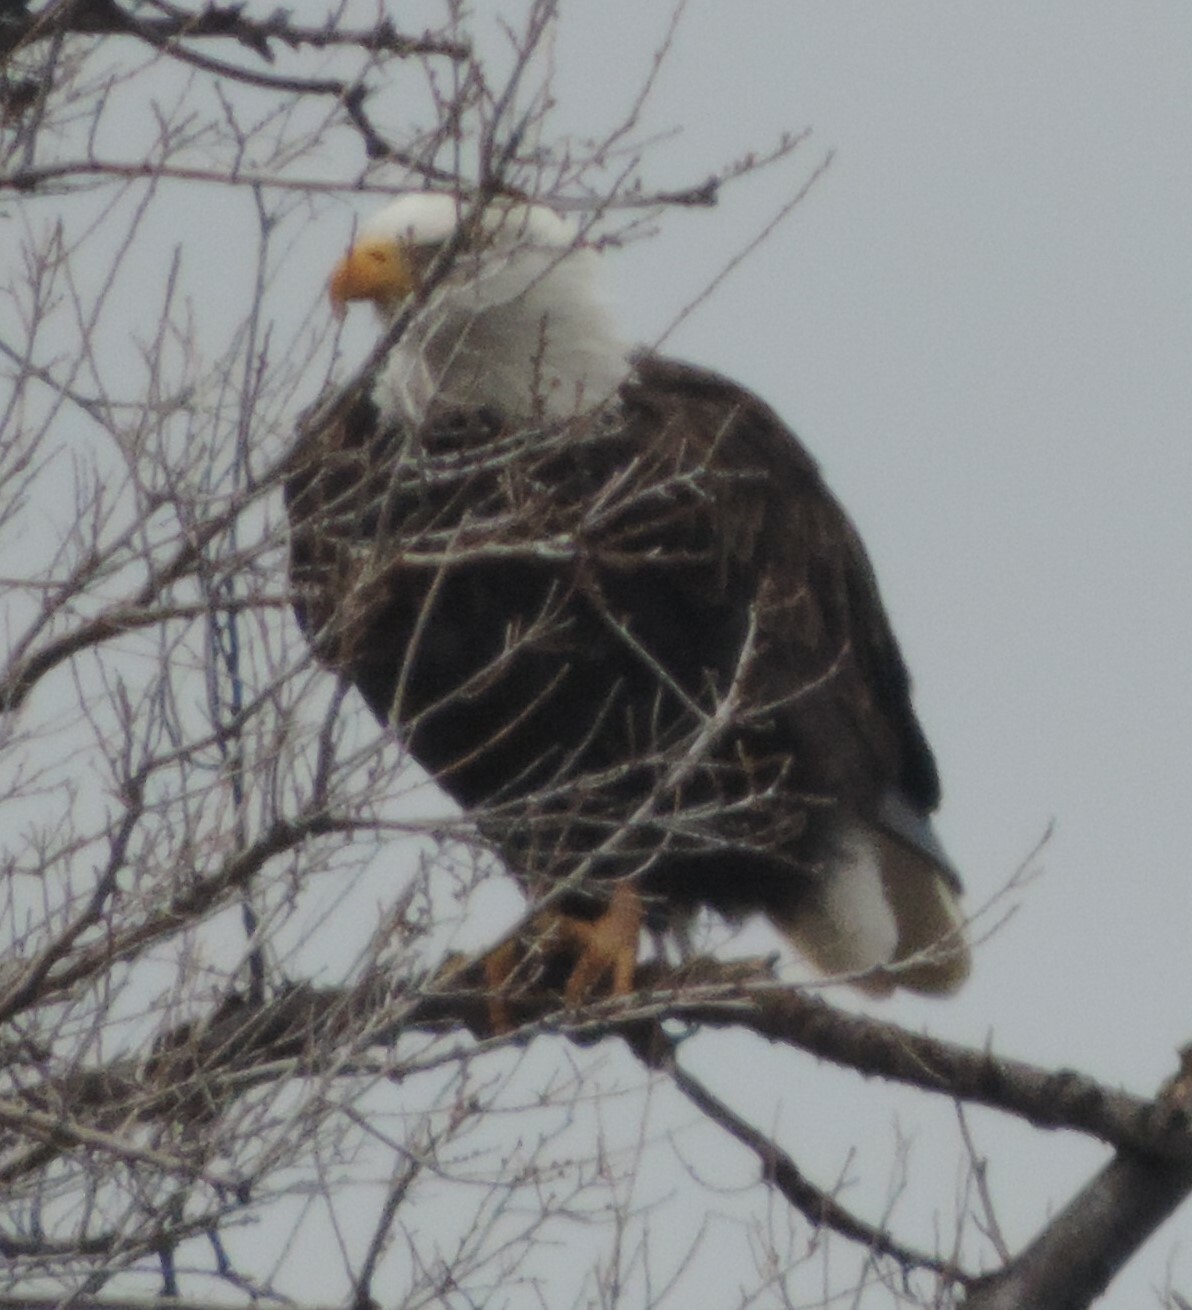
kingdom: Animalia
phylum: Chordata
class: Aves
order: Accipitriformes
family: Accipitridae
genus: Haliaeetus
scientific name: Haliaeetus leucocephalus
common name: Bald eagle
